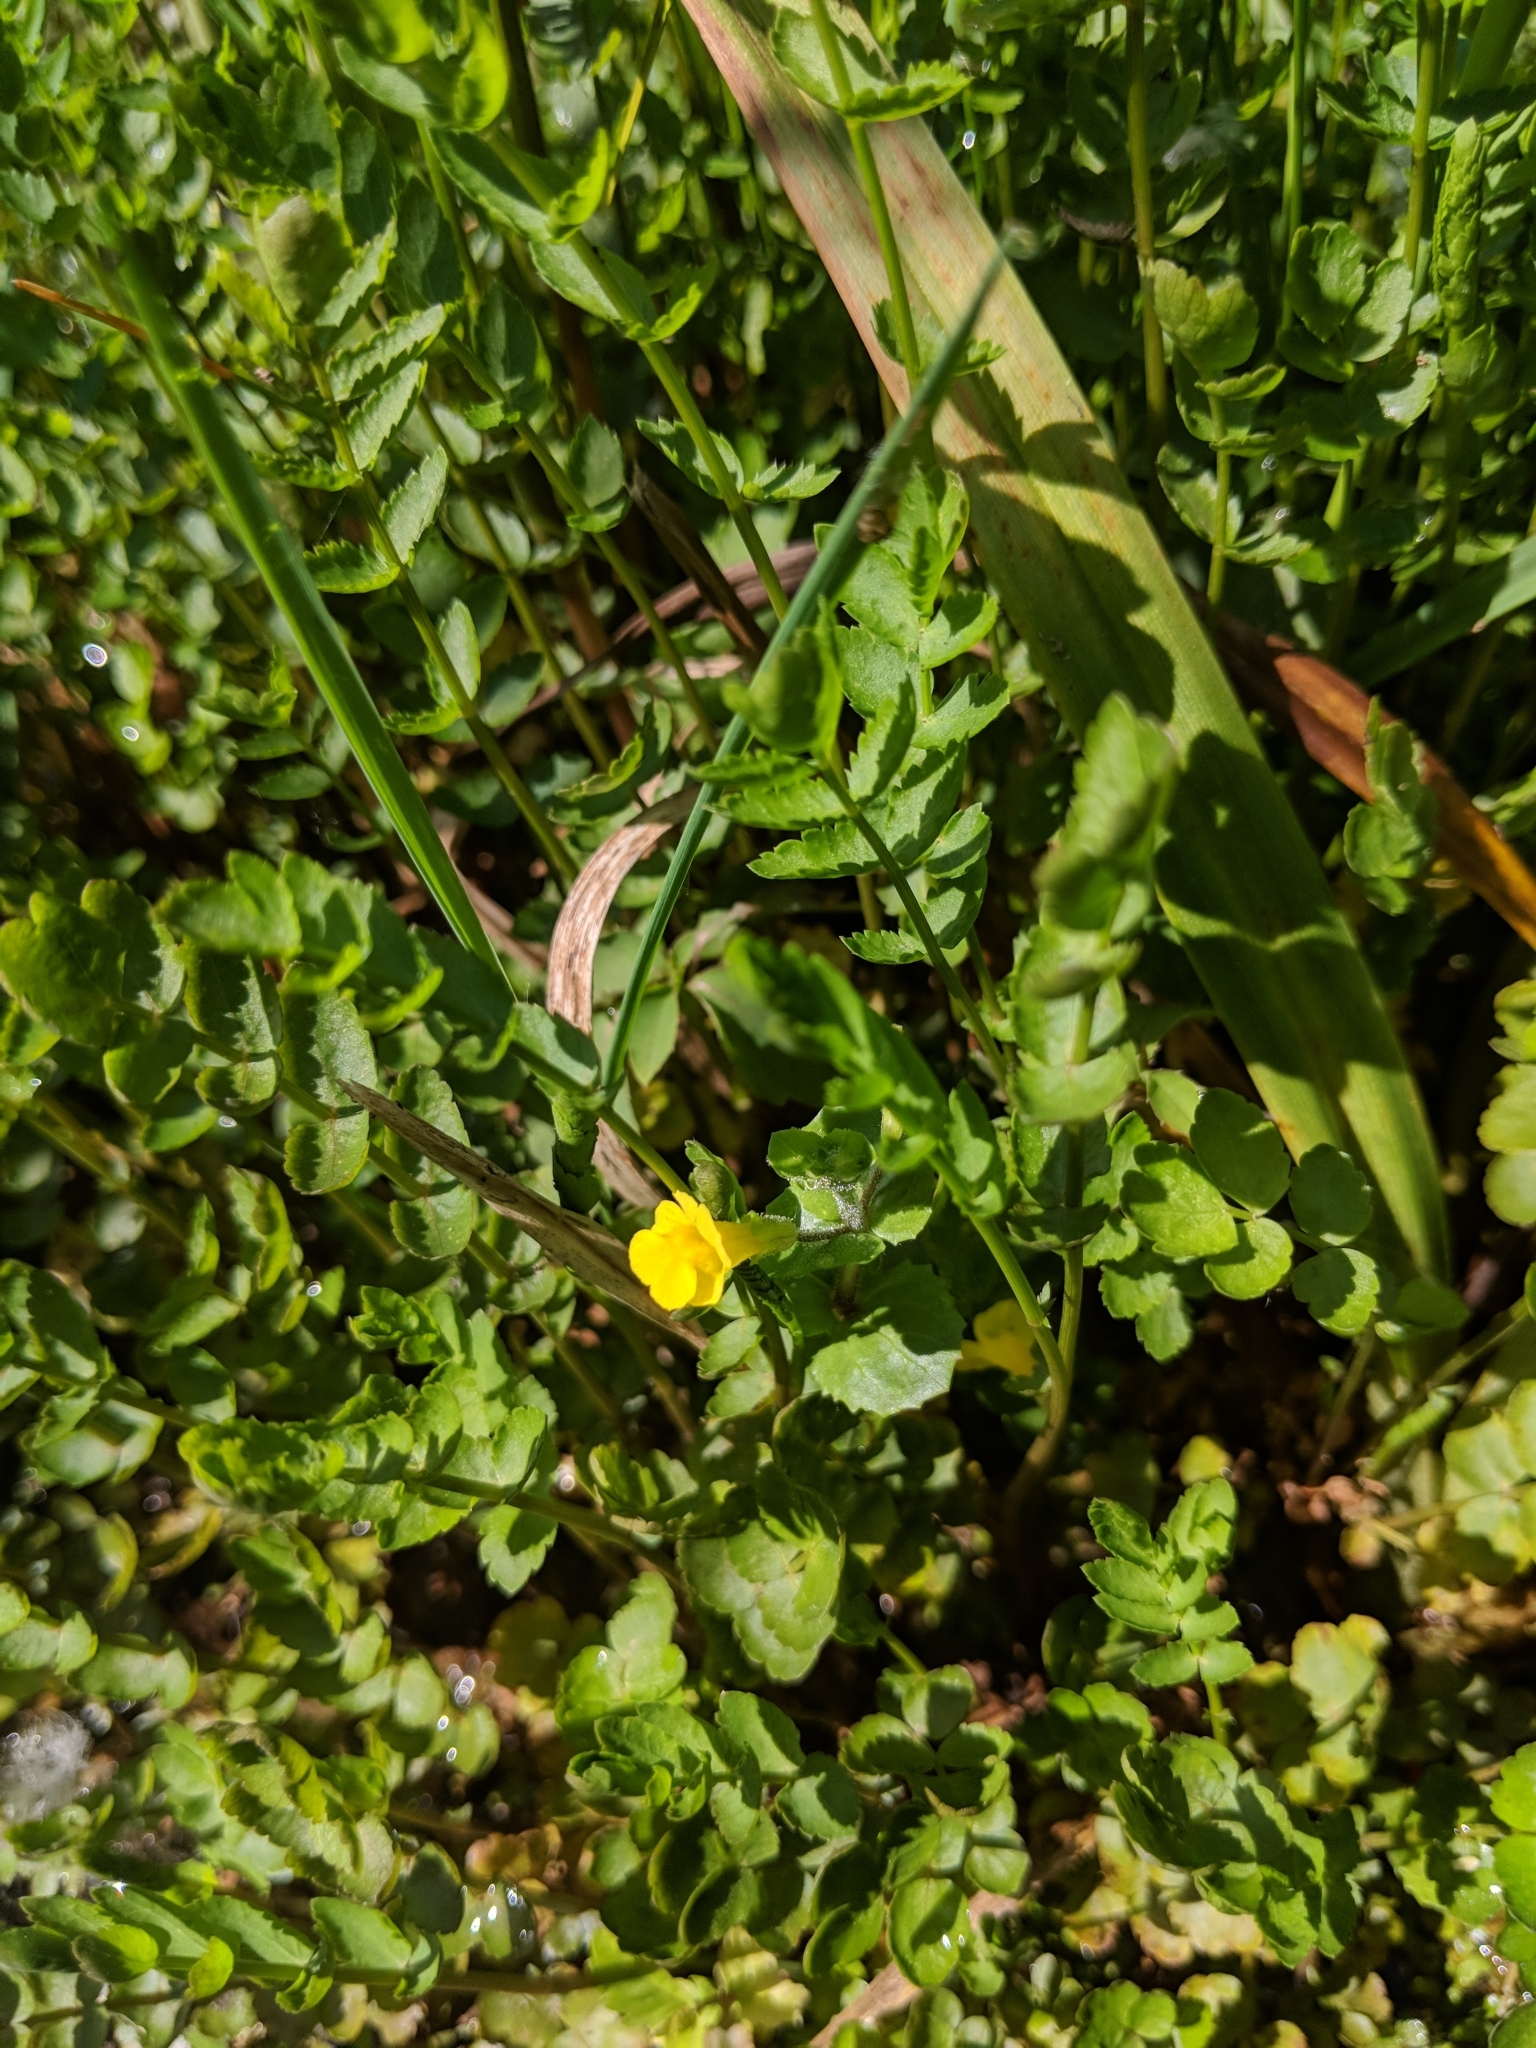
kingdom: Plantae
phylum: Tracheophyta
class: Magnoliopsida
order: Lamiales
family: Phrymaceae
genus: Erythranthe
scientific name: Erythranthe guttata
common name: Monkeyflower
